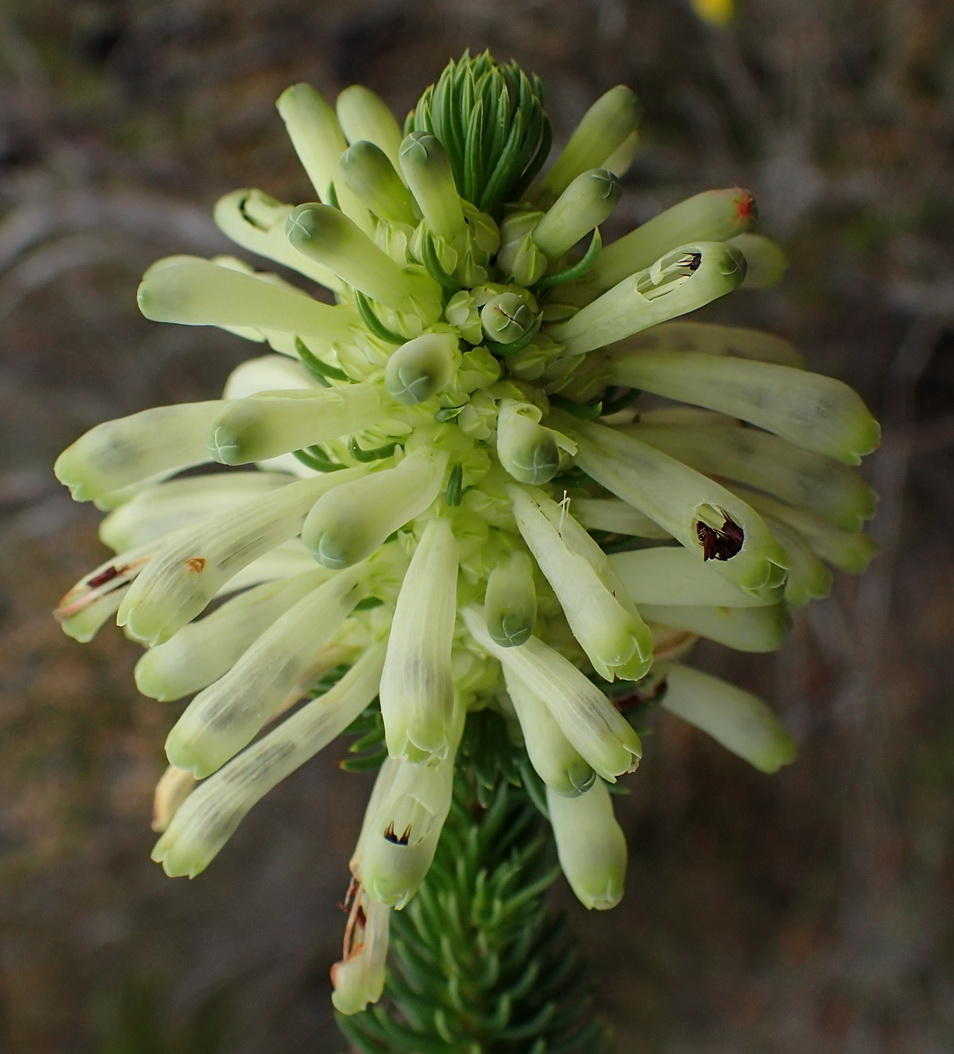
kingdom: Plantae
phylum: Tracheophyta
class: Magnoliopsida
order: Ericales
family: Ericaceae
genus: Erica
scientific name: Erica sessiliflora
